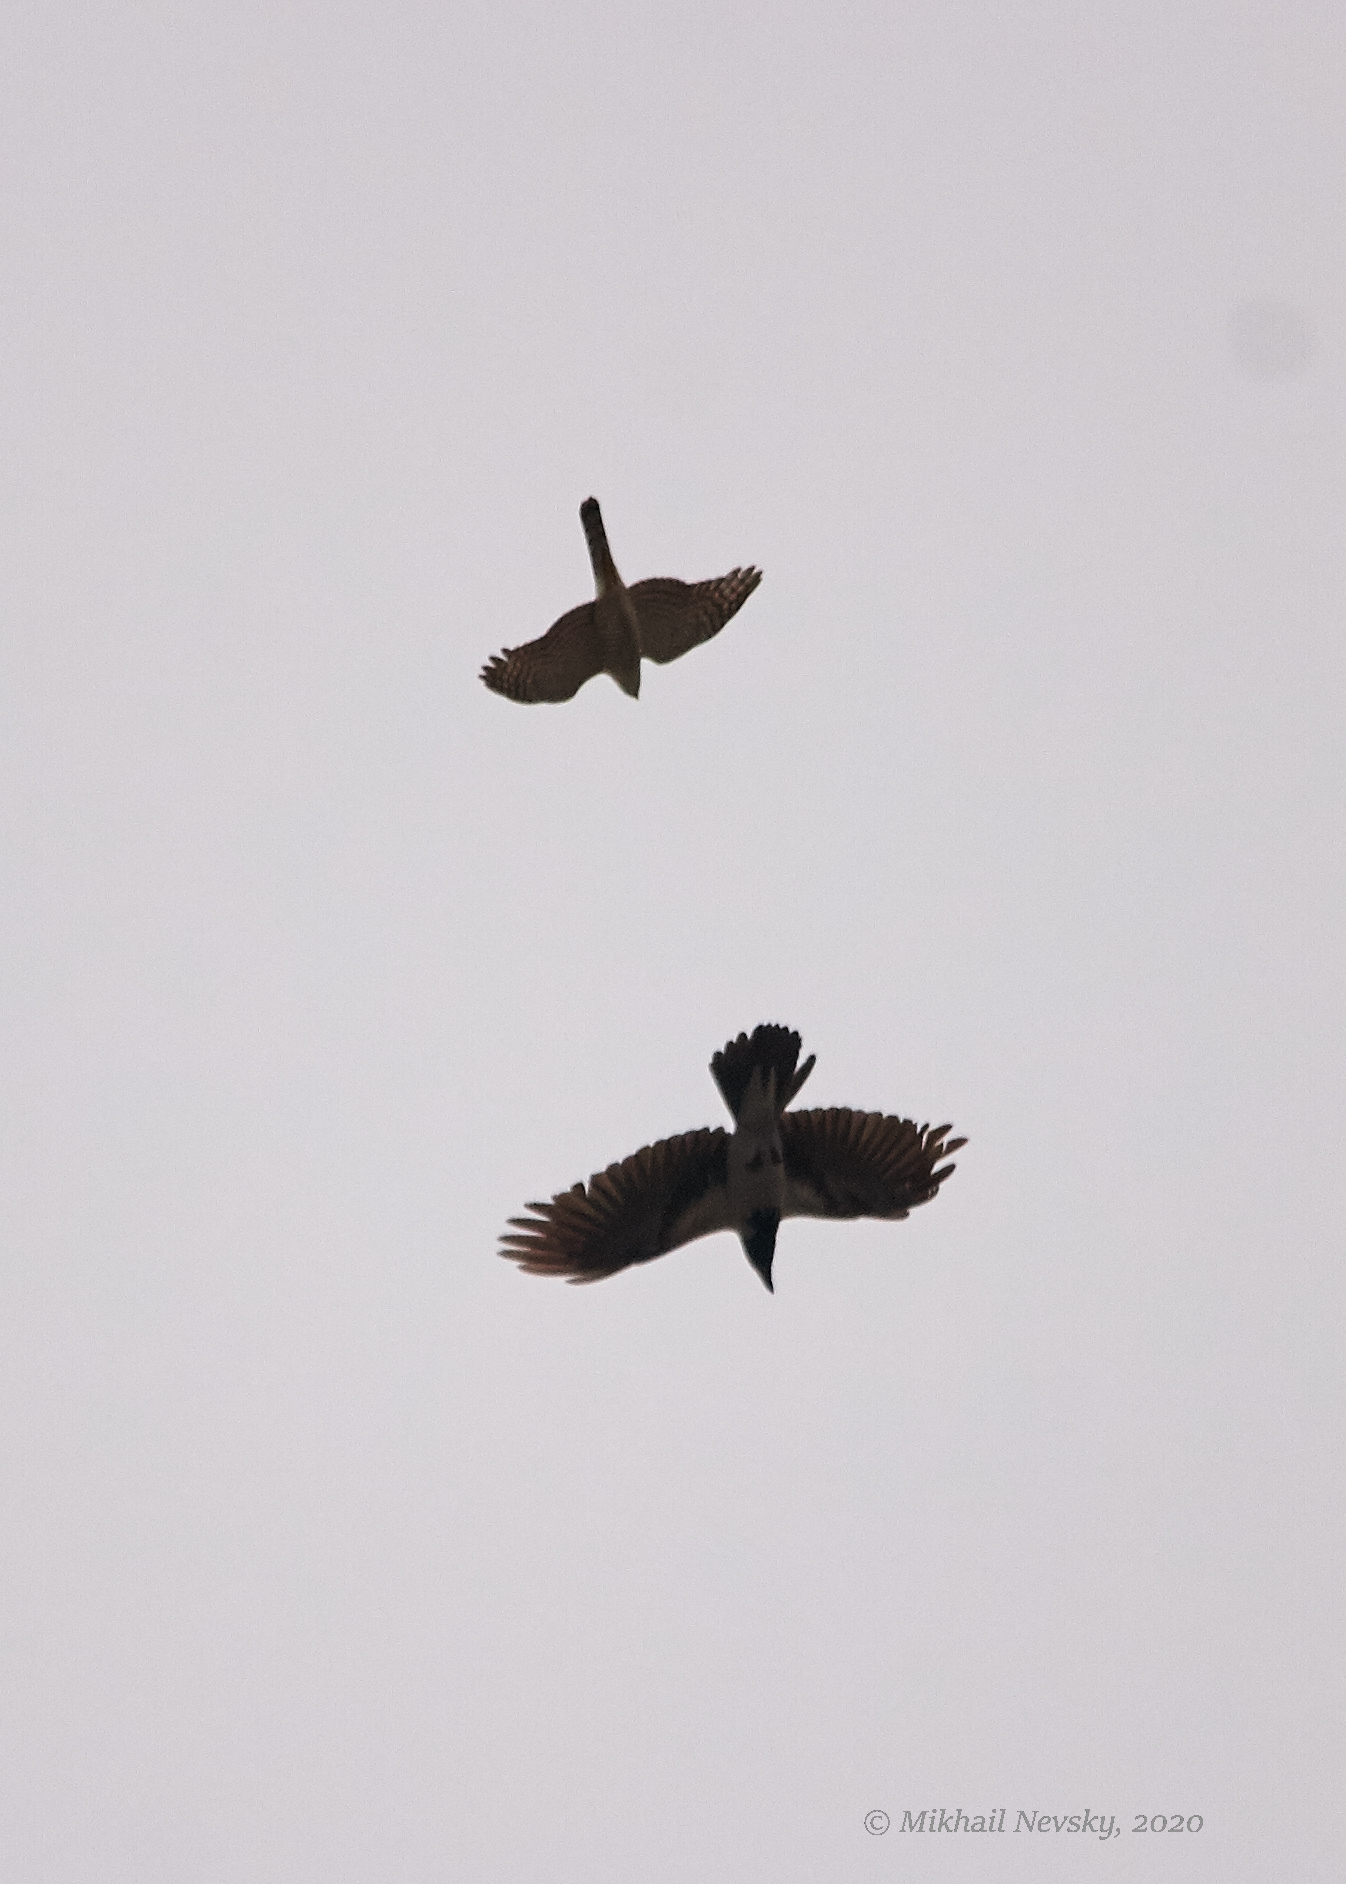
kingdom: Animalia
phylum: Chordata
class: Aves
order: Accipitriformes
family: Accipitridae
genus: Accipiter
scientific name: Accipiter nisus
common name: Eurasian sparrowhawk
